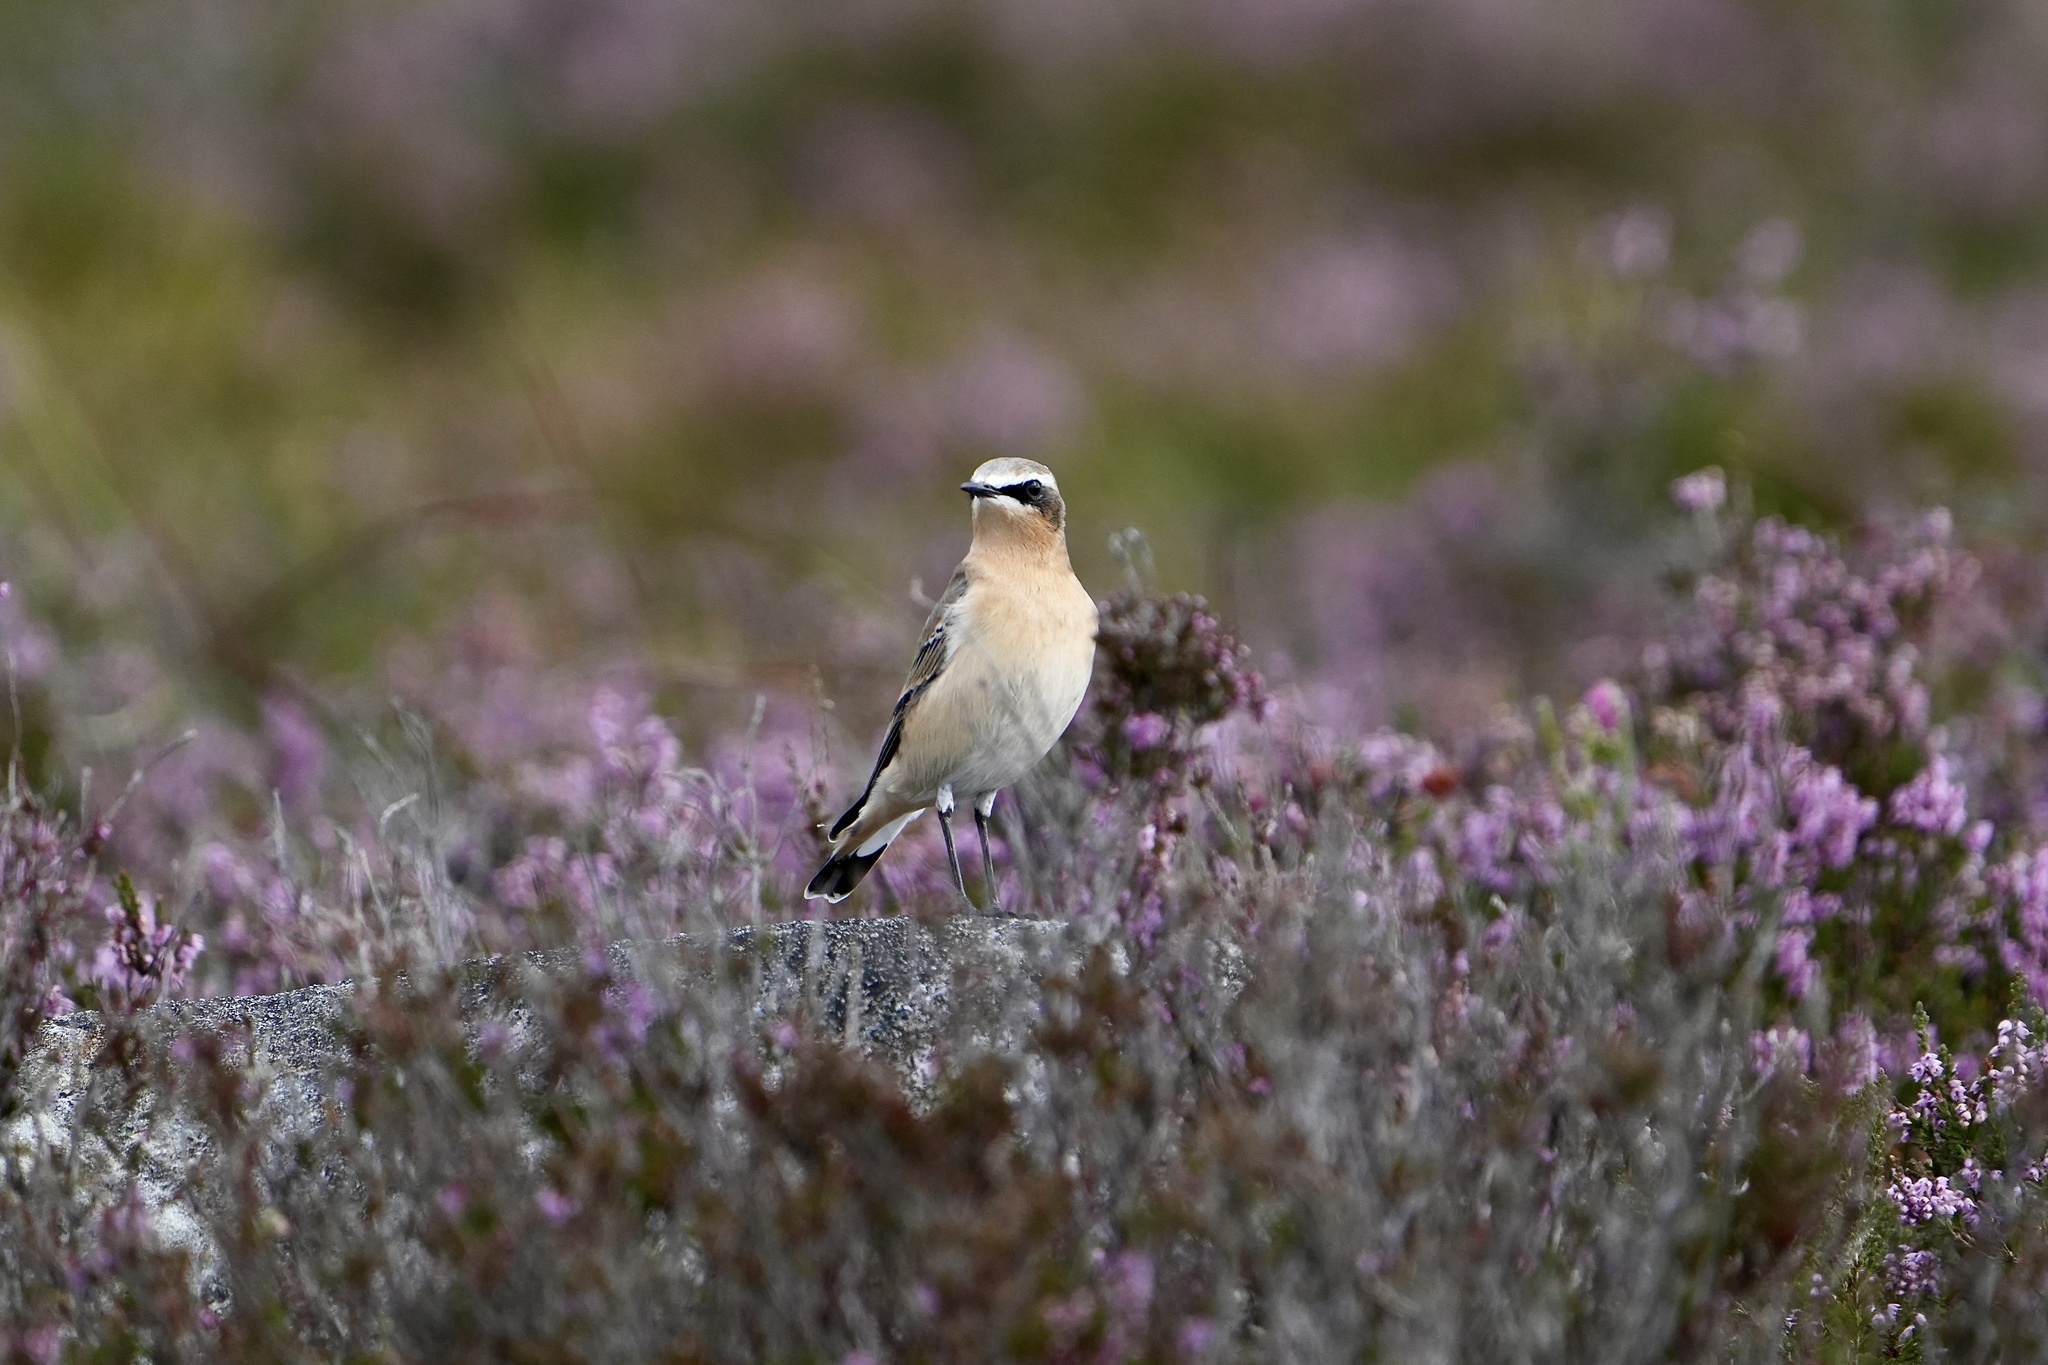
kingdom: Animalia
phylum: Chordata
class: Aves
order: Passeriformes
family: Muscicapidae
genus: Oenanthe
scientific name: Oenanthe oenanthe
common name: Northern wheatear
